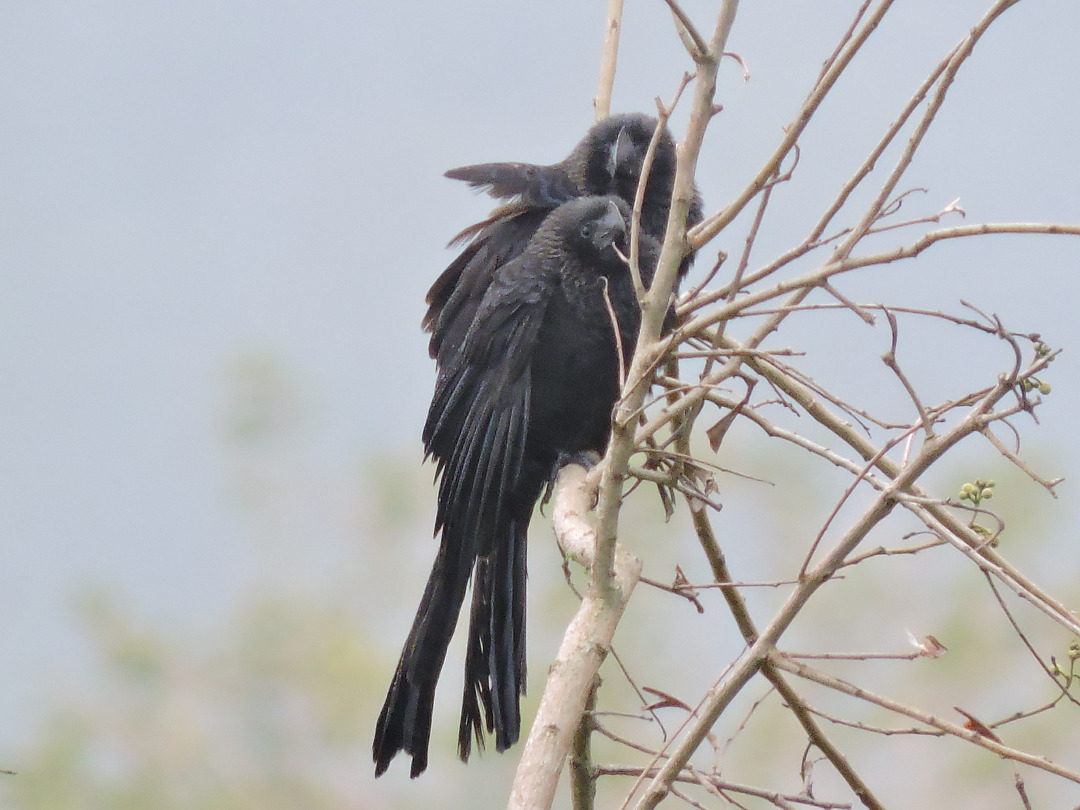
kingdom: Animalia
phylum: Chordata
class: Aves
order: Cuculiformes
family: Cuculidae
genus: Crotophaga
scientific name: Crotophaga ani
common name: Smooth-billed ani
